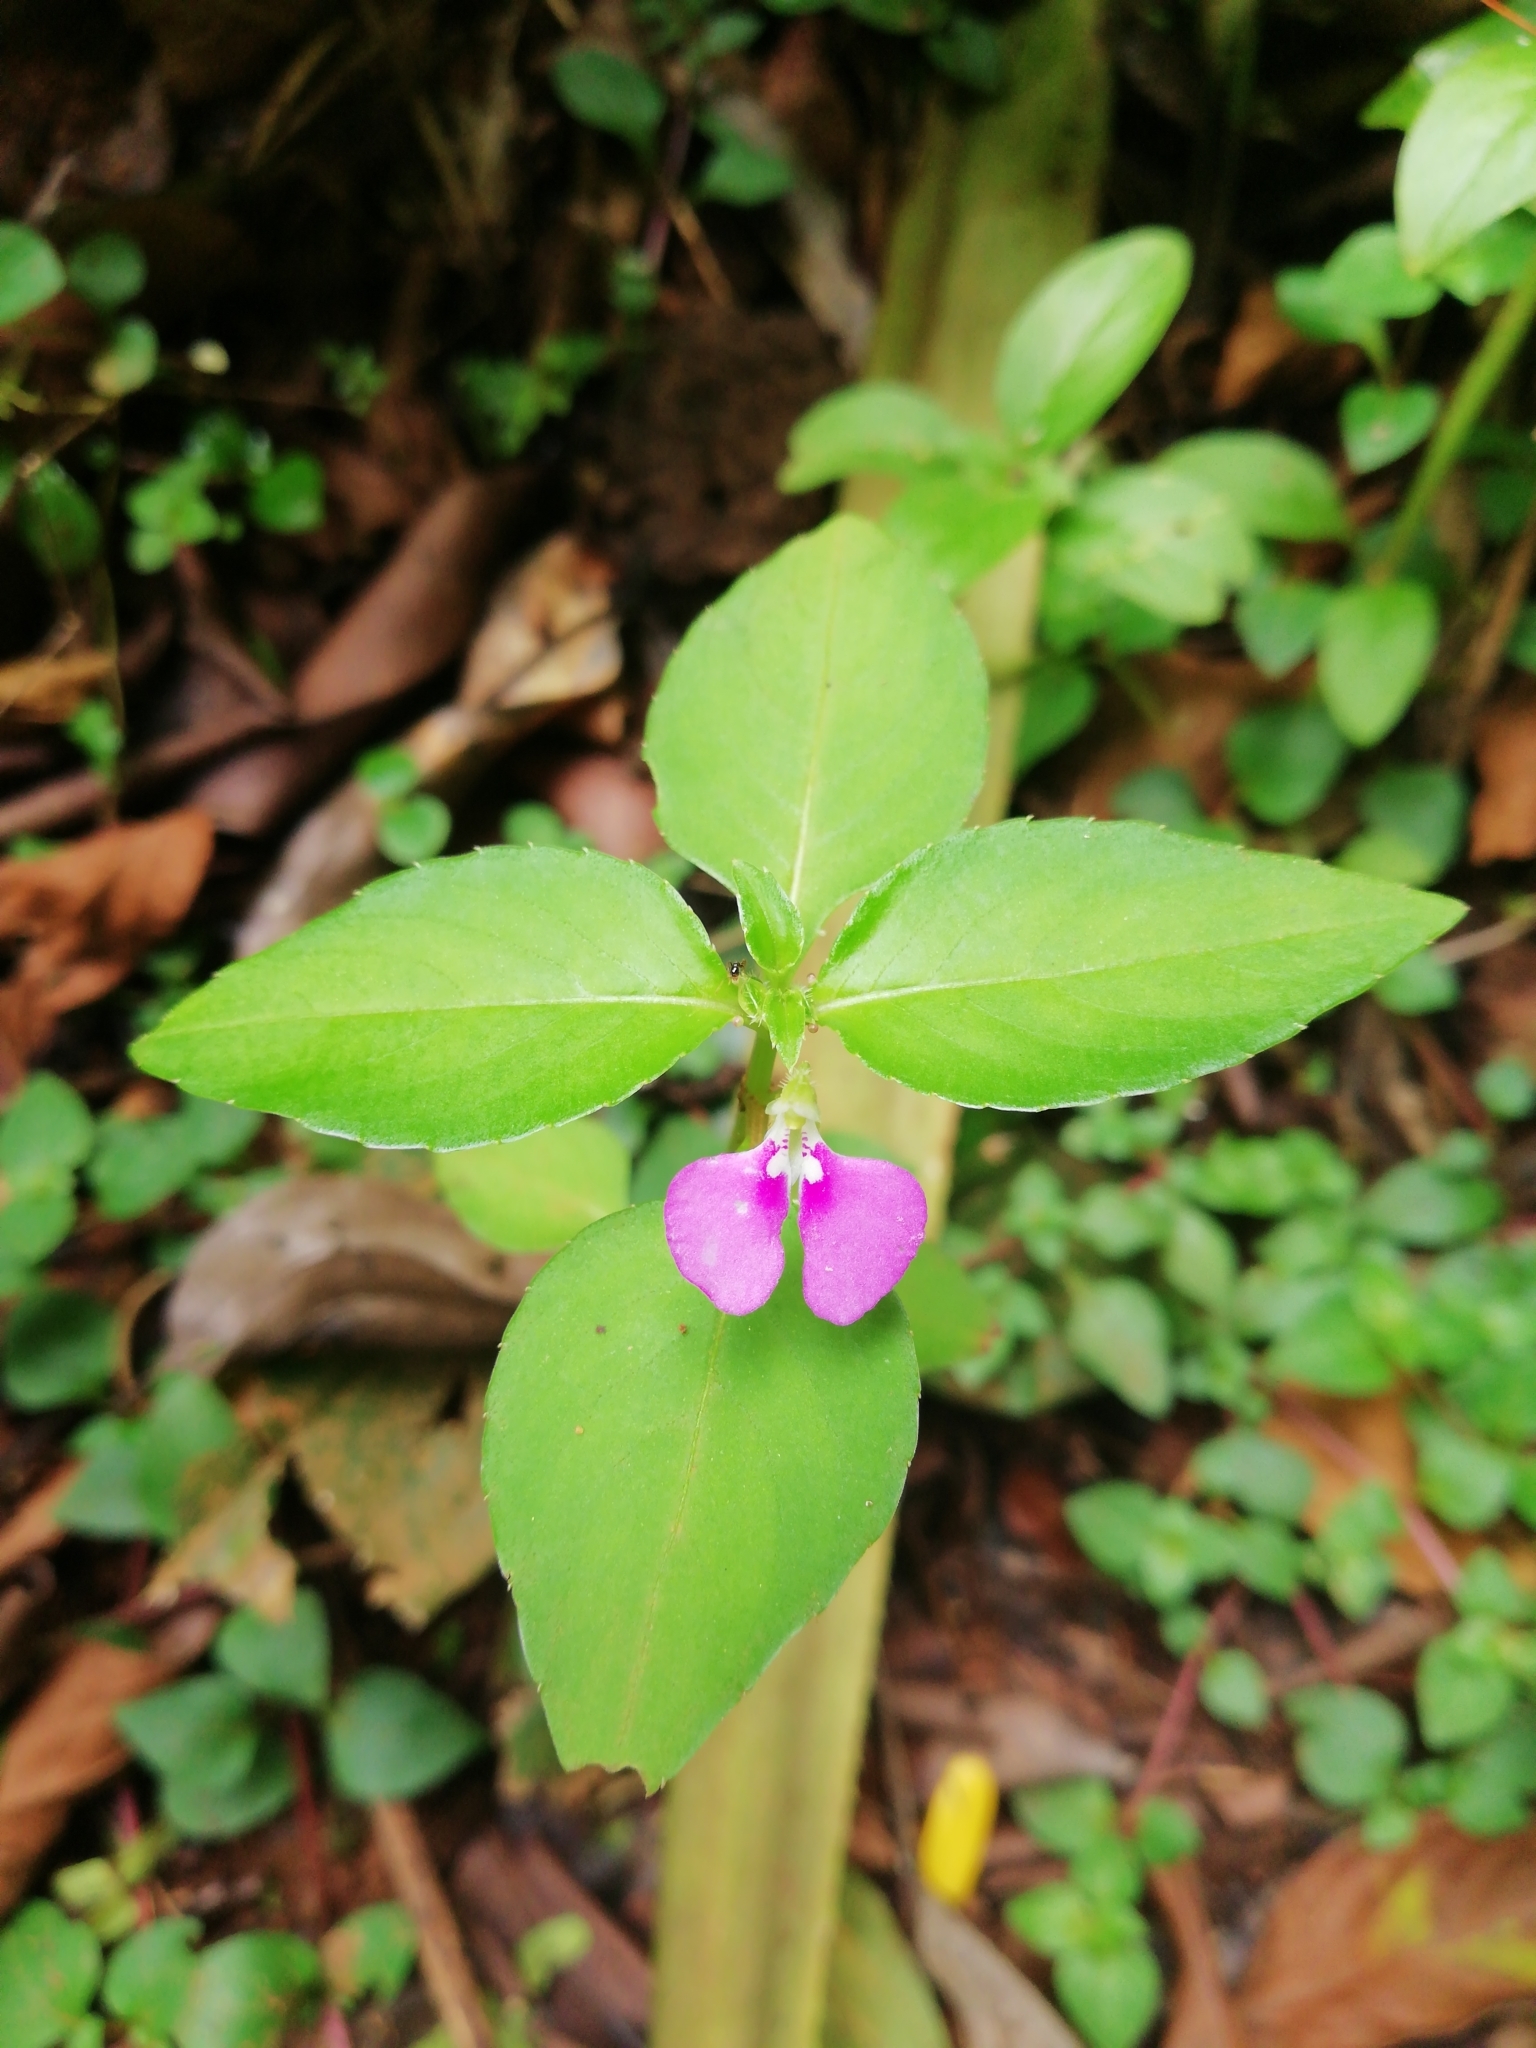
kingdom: Plantae
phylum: Tracheophyta
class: Magnoliopsida
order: Ericales
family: Balsaminaceae
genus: Impatiens
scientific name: Impatiens minor
